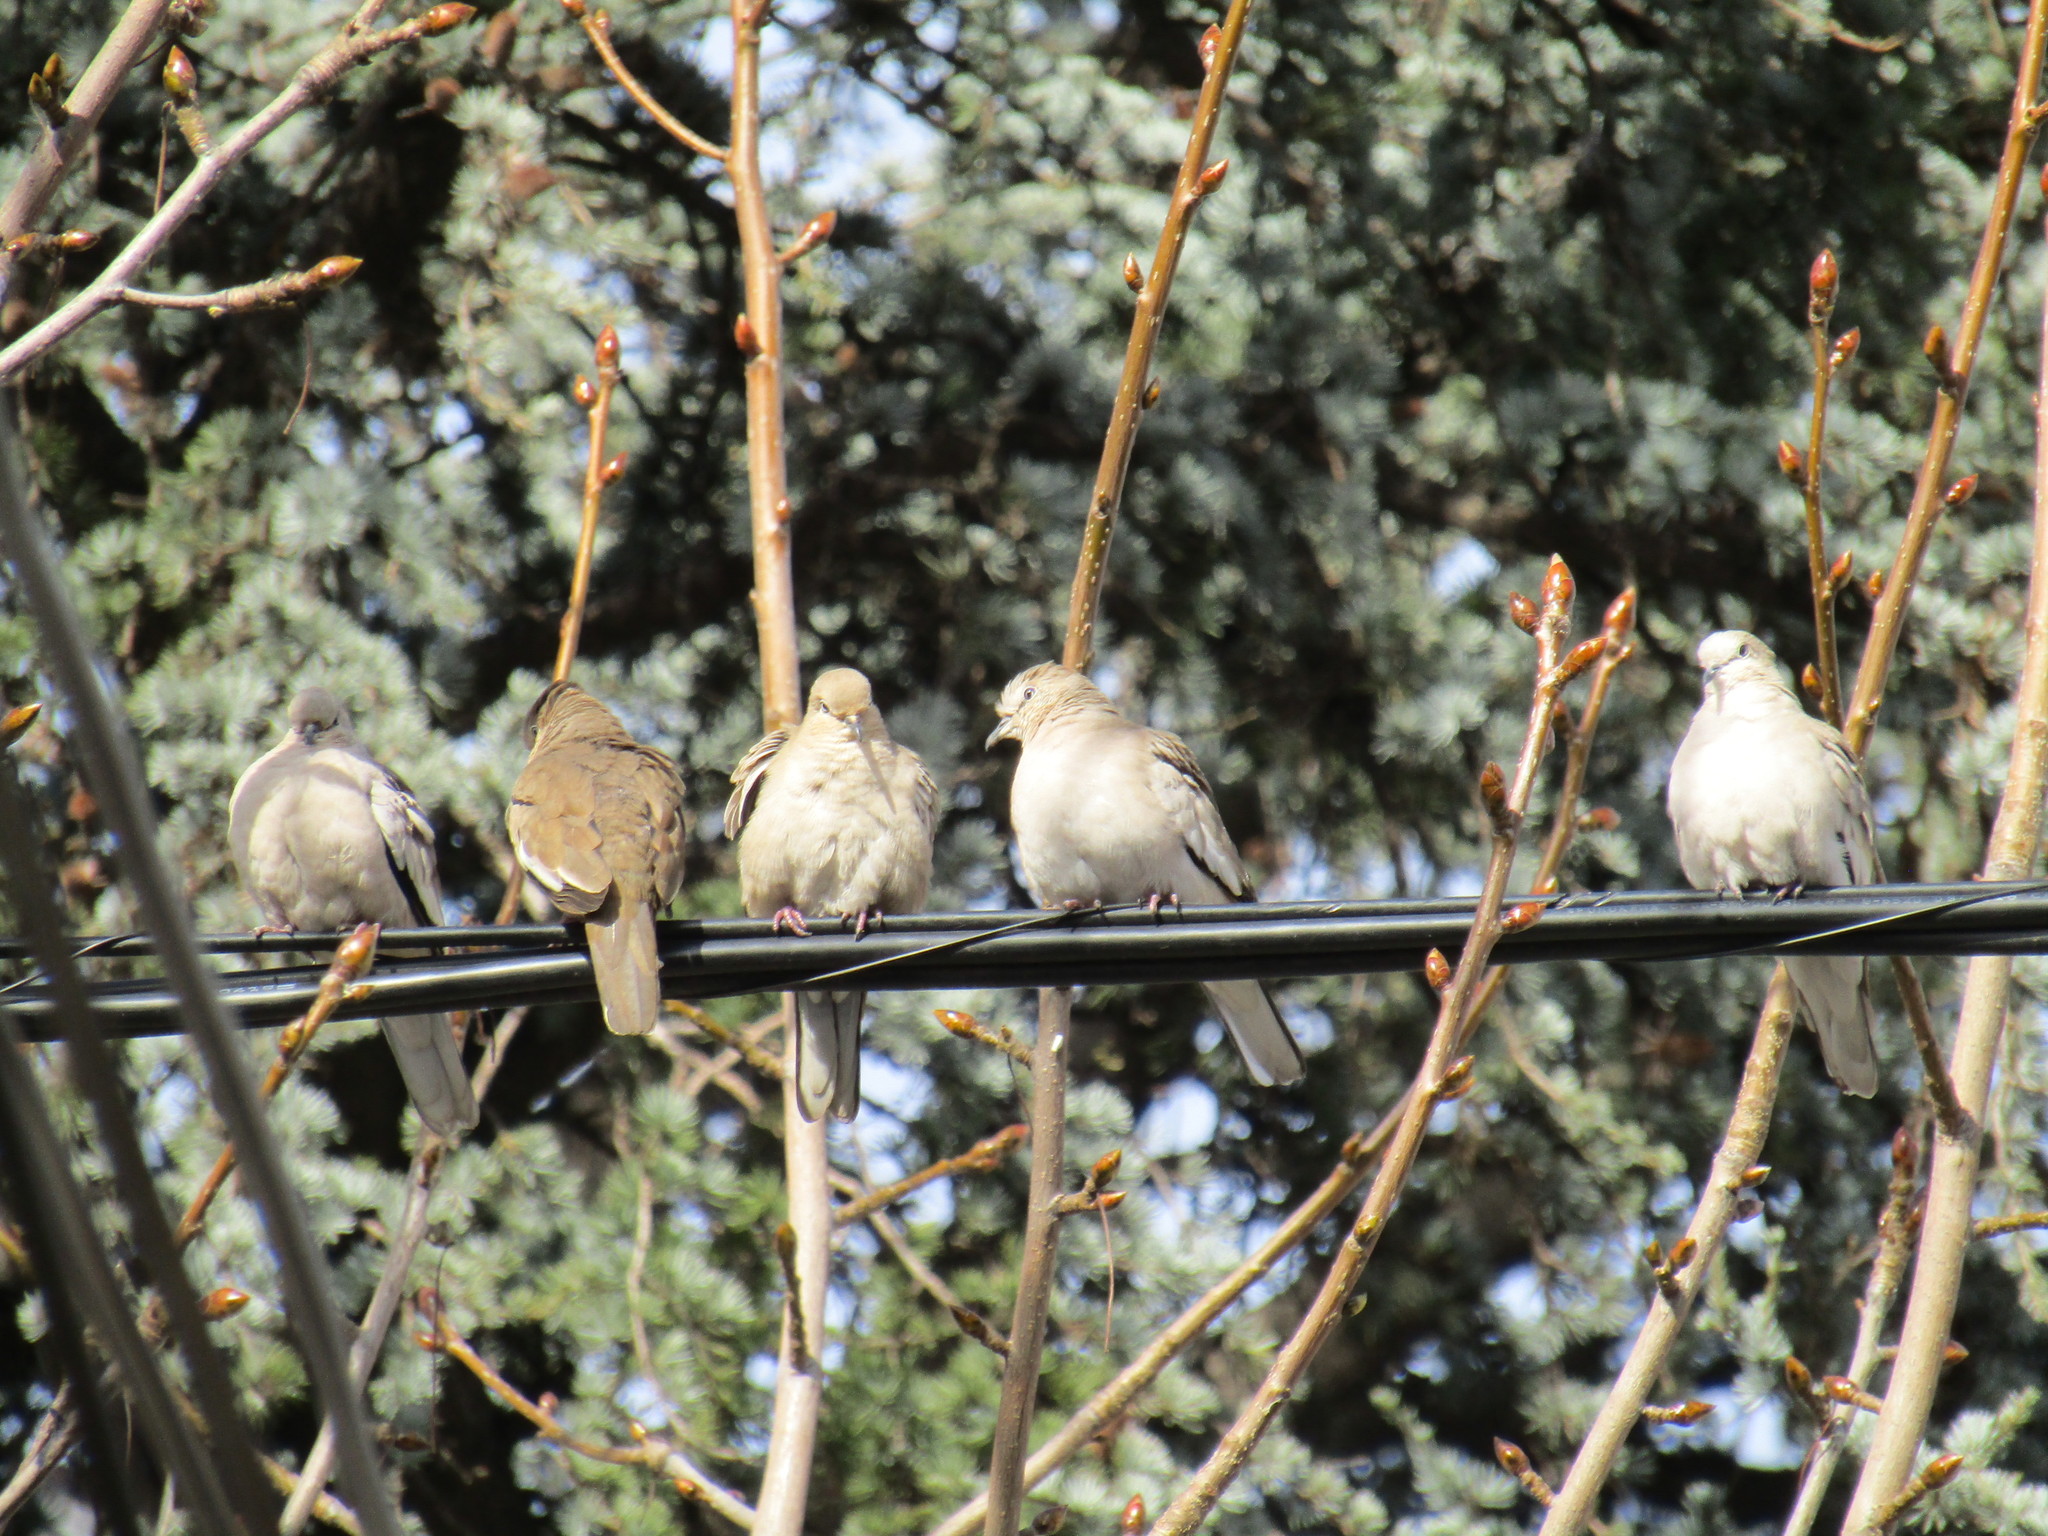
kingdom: Animalia
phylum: Chordata
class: Aves
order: Columbiformes
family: Columbidae
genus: Columbina
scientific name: Columbina picui
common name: Picui ground dove
